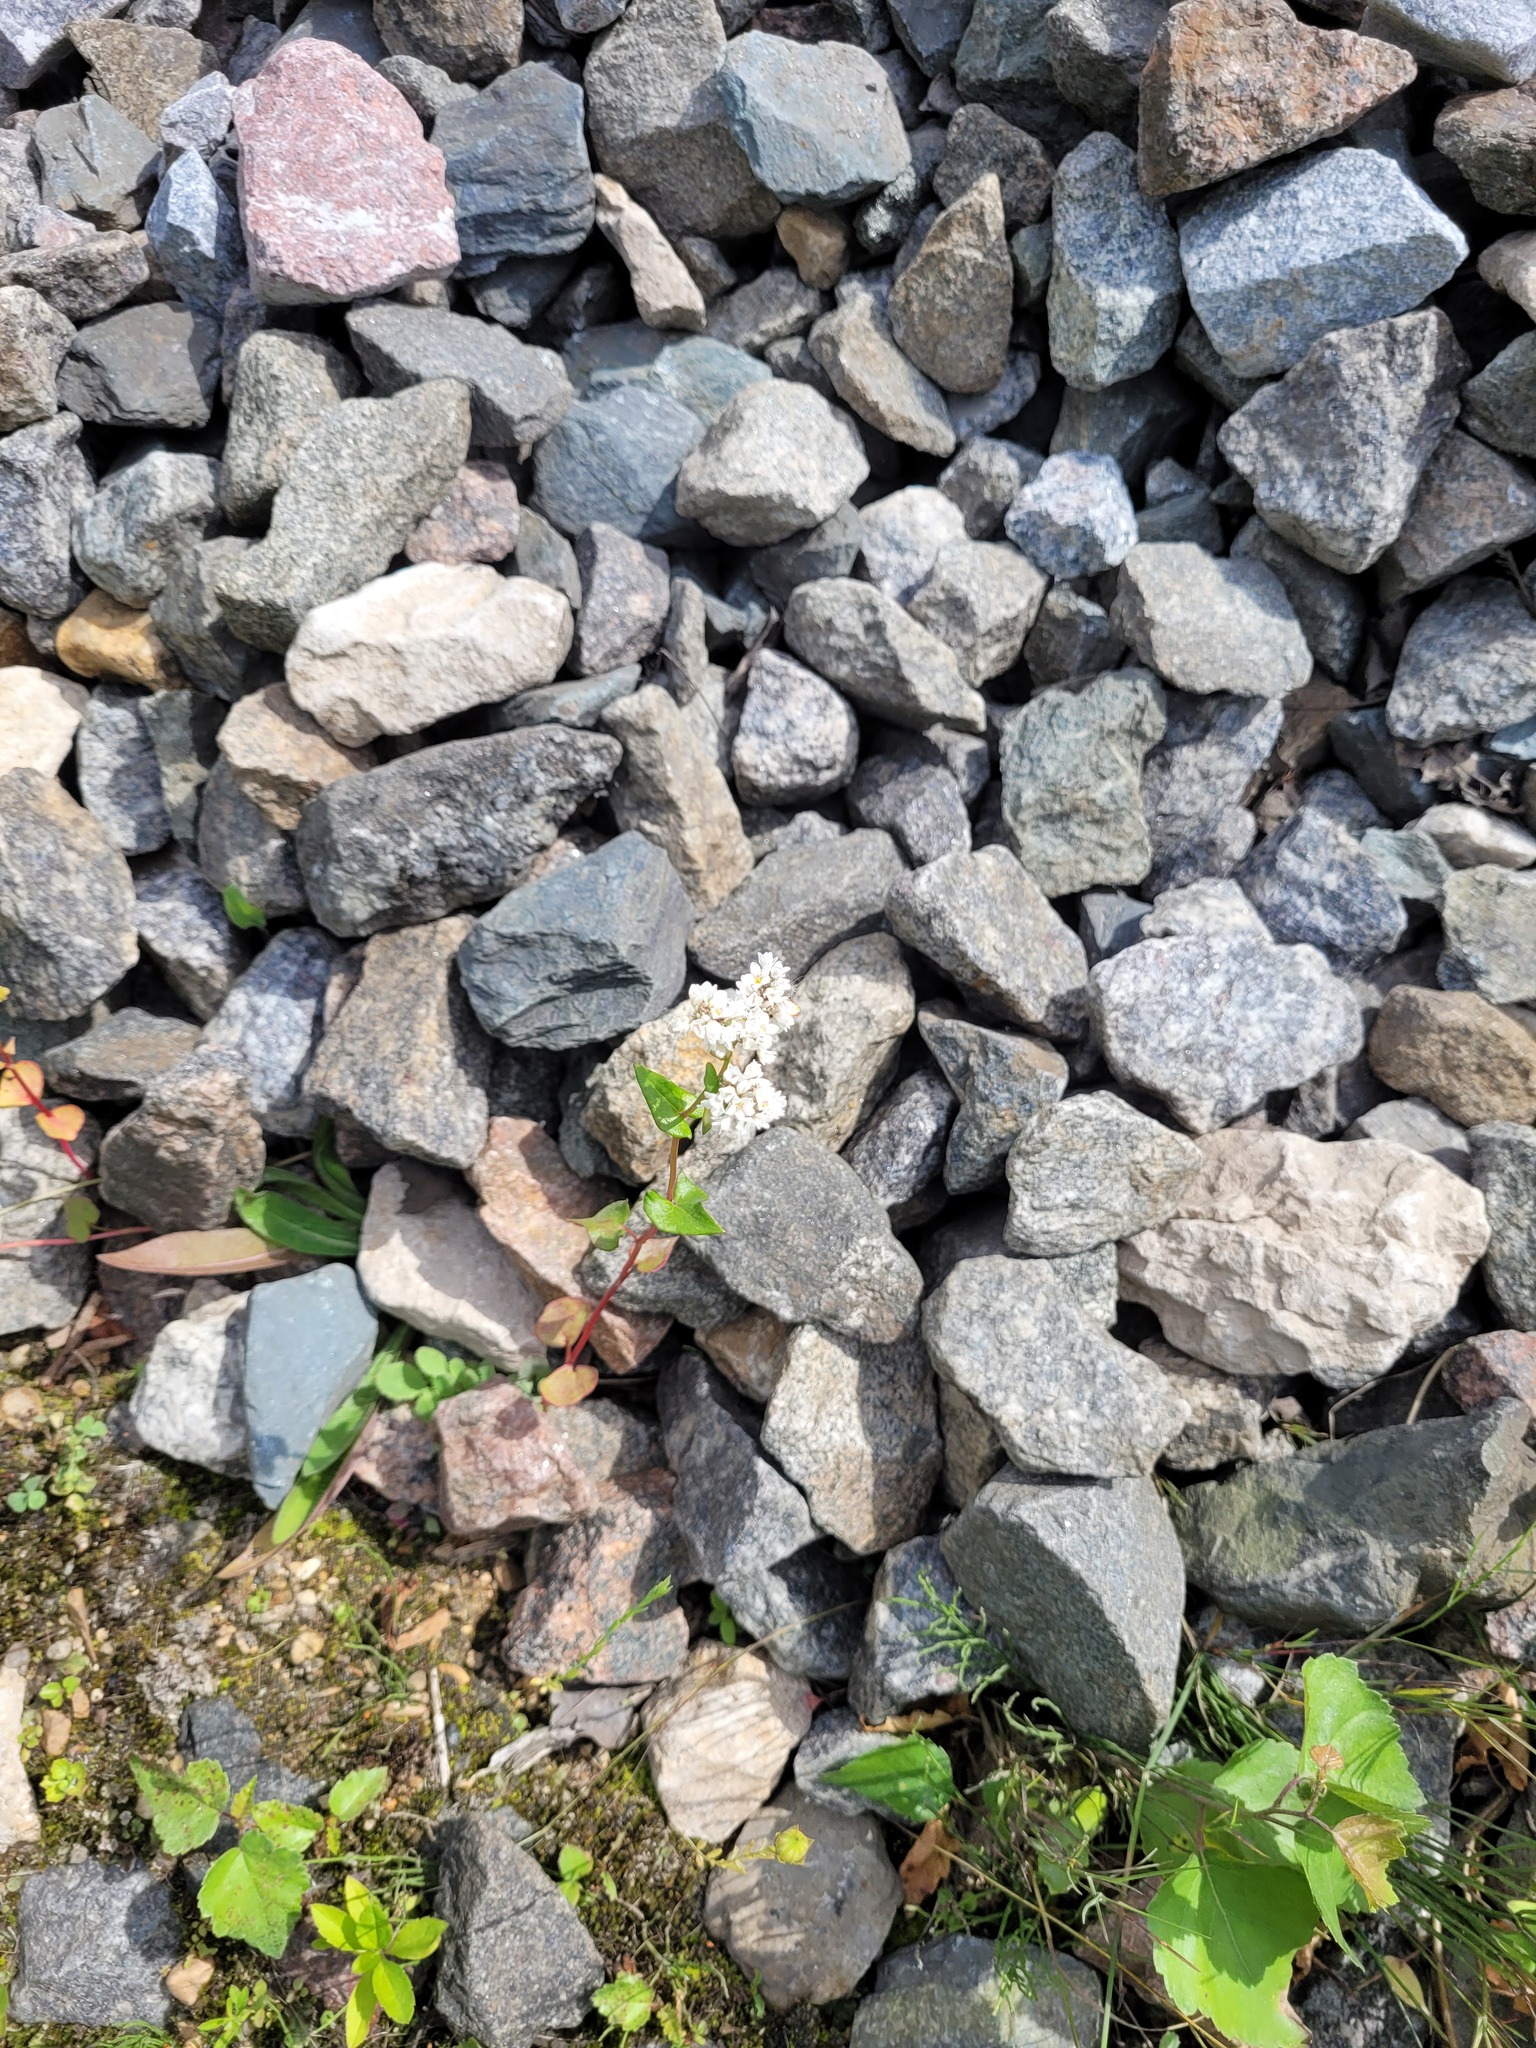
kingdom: Plantae
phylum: Tracheophyta
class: Magnoliopsida
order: Caryophyllales
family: Polygonaceae
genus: Fagopyrum
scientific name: Fagopyrum esculentum
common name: Buckwheat
